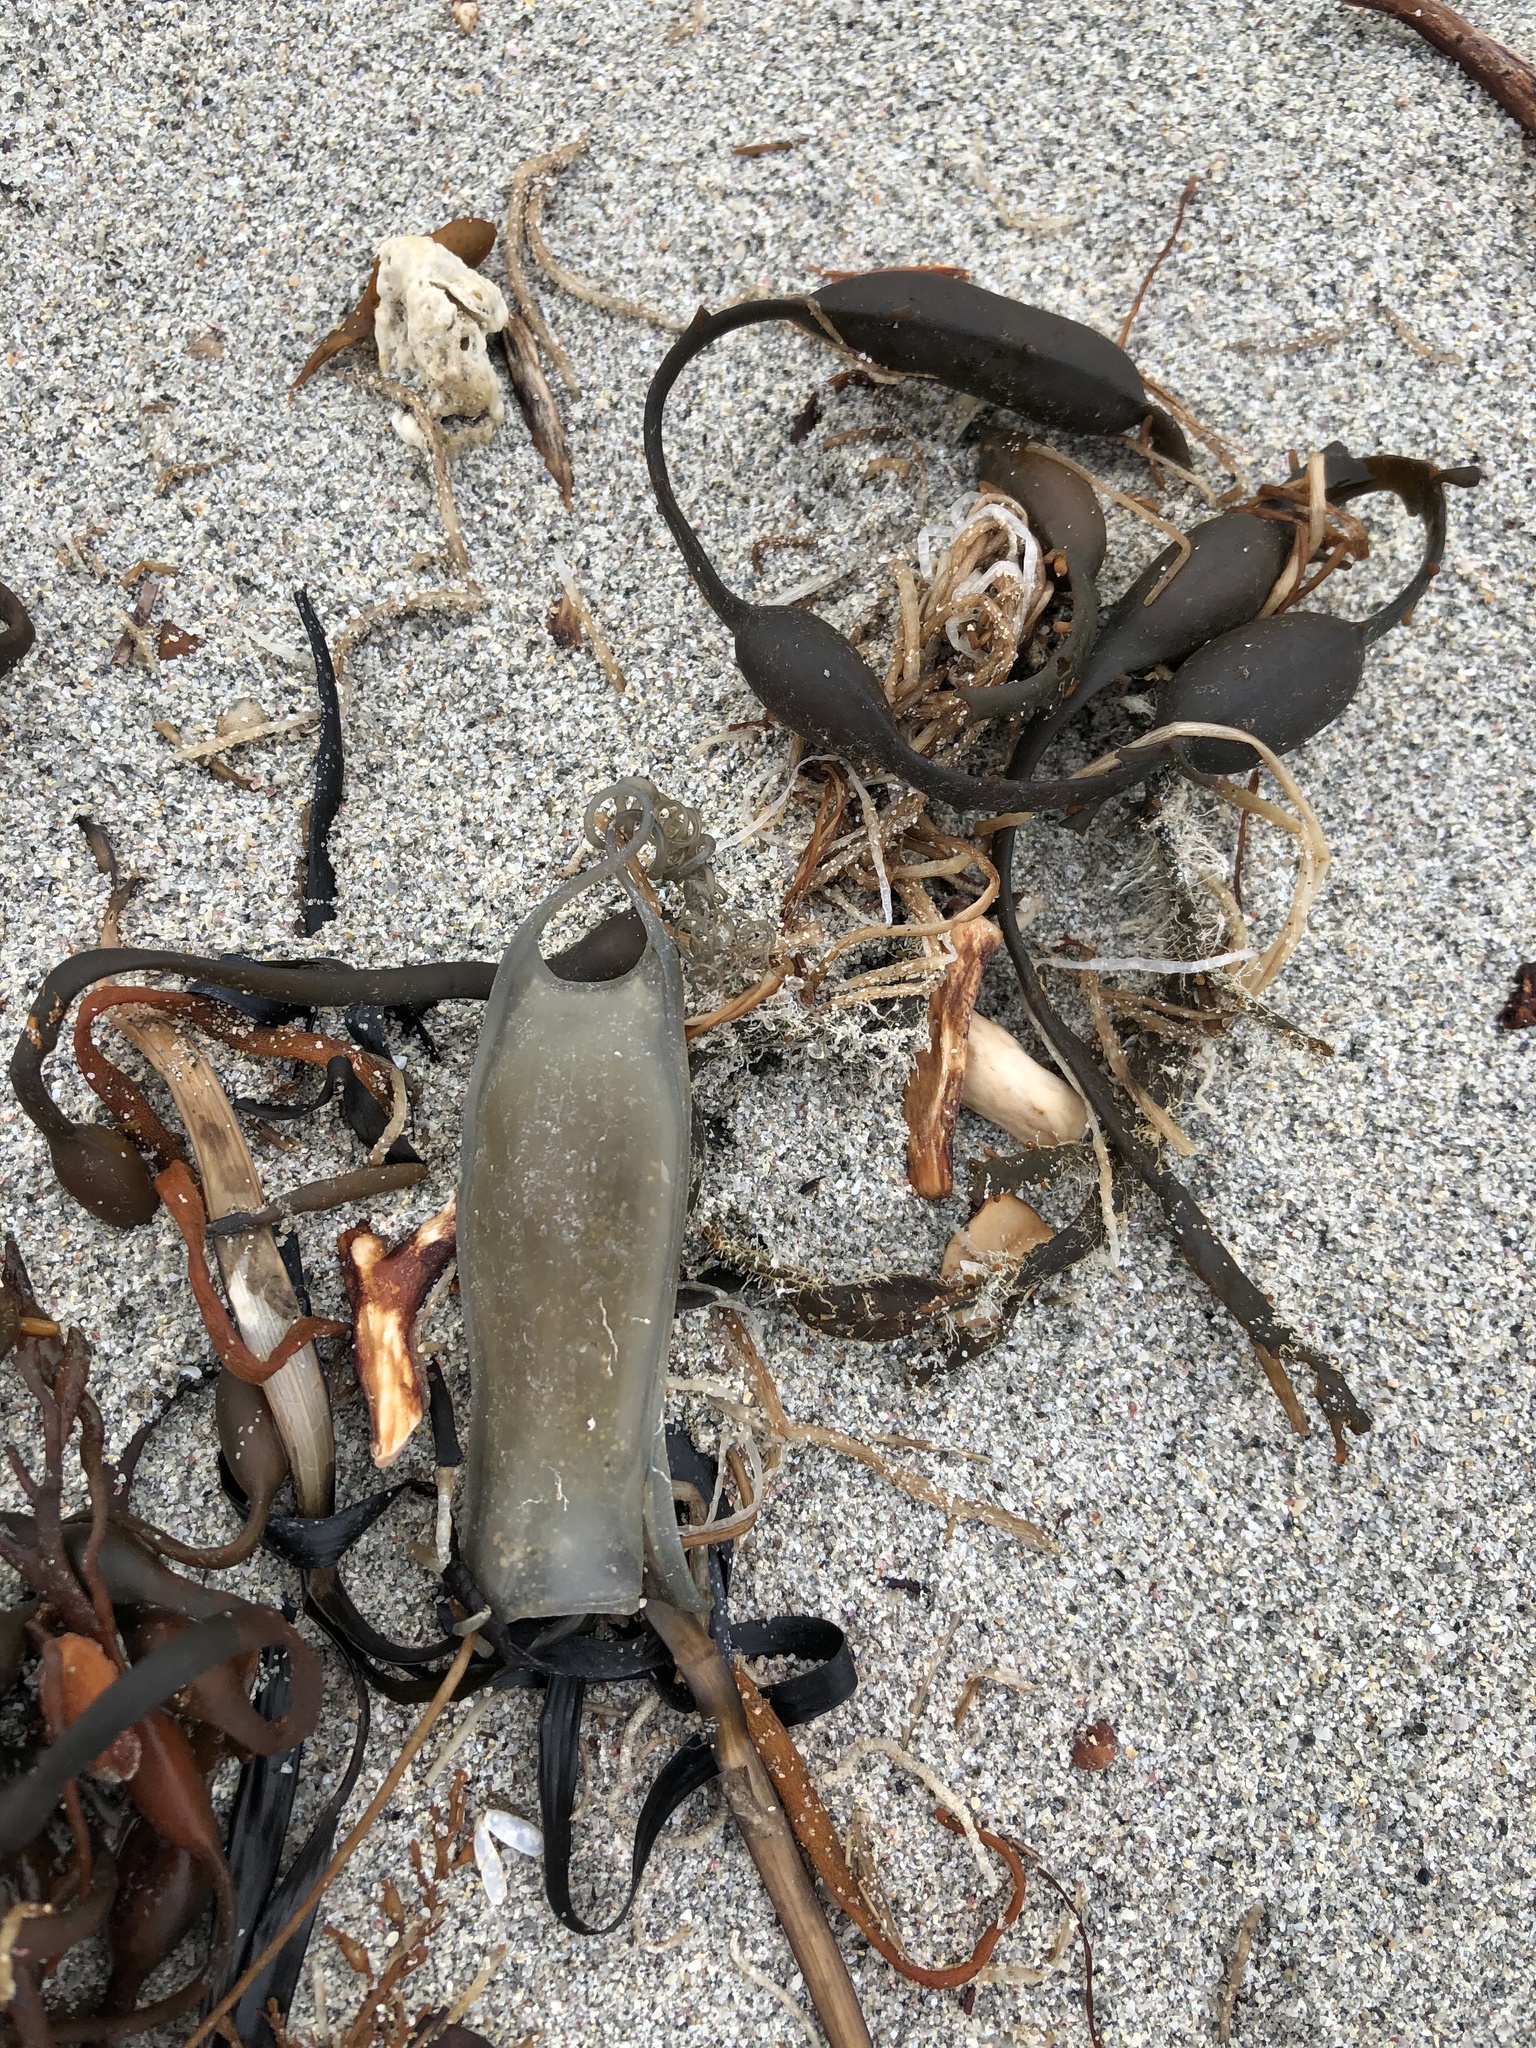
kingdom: Animalia
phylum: Chordata
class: Elasmobranchii
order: Carcharhiniformes
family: Scyliorhinidae
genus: Scyliorhinus
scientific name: Scyliorhinus canicula
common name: Lesser spotted dogfish
